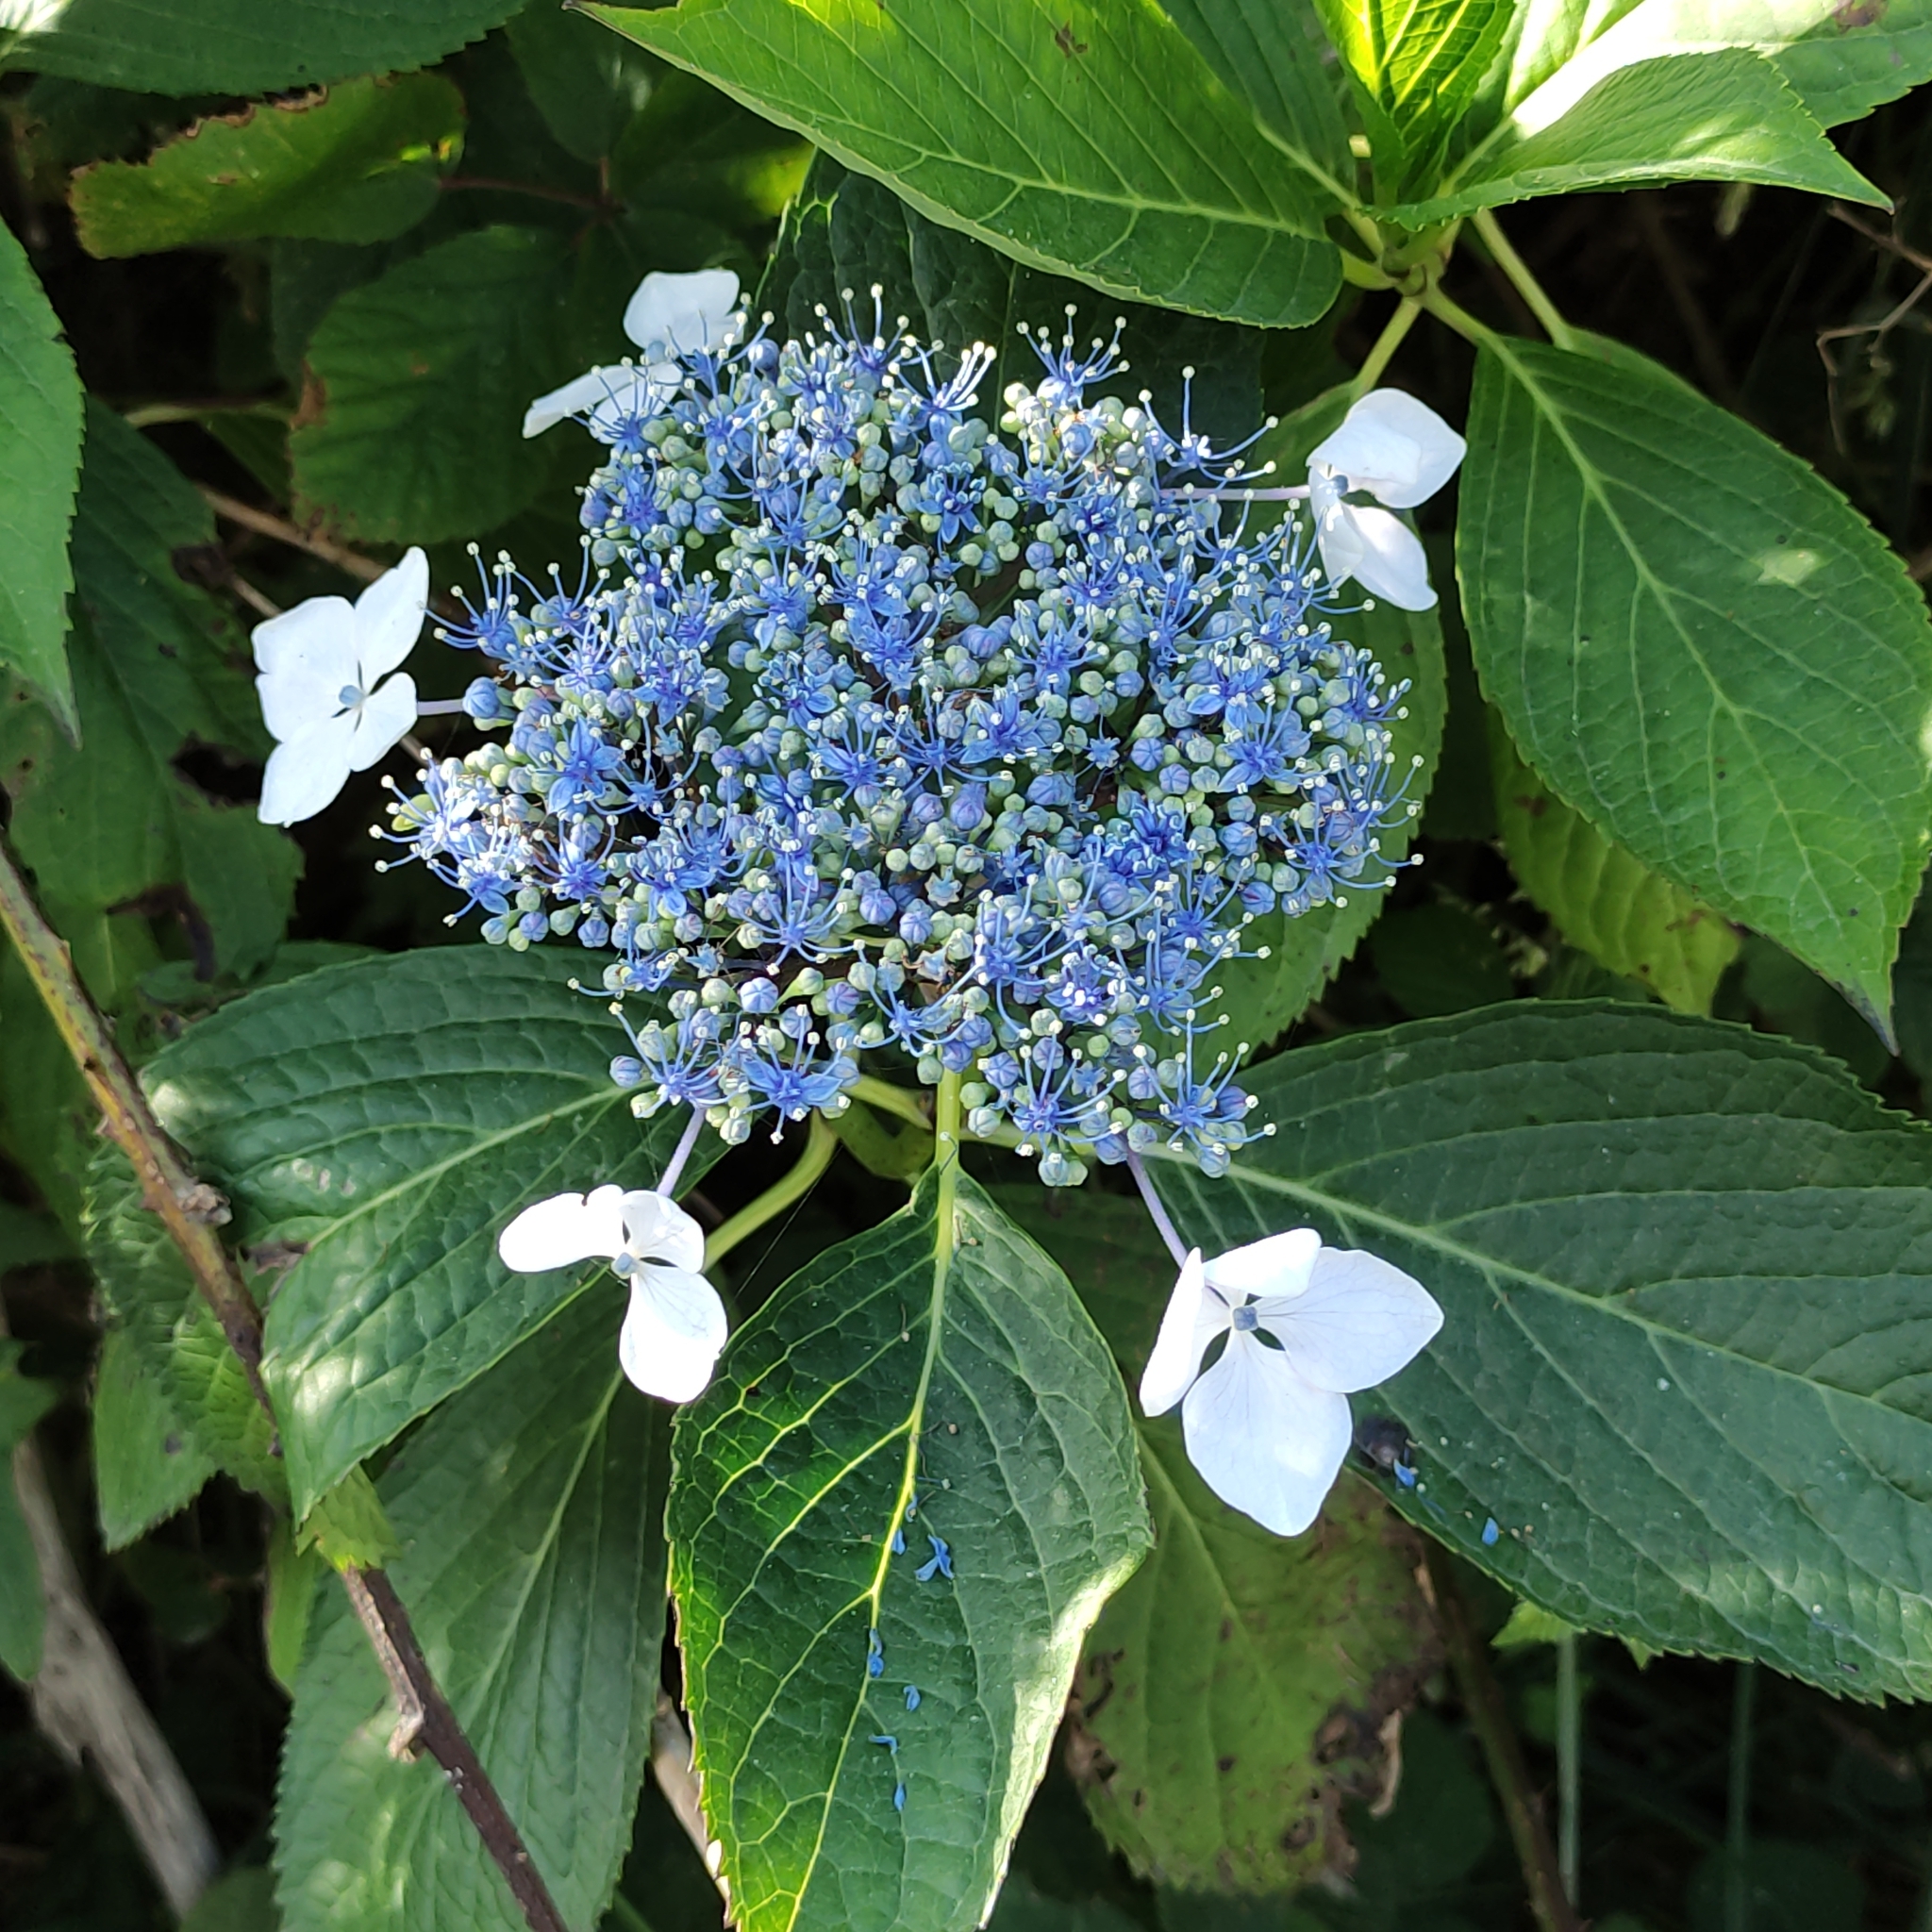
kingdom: Plantae
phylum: Tracheophyta
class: Magnoliopsida
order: Cornales
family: Hydrangeaceae
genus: Hydrangea
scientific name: Hydrangea macrophylla
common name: Hydrangea
